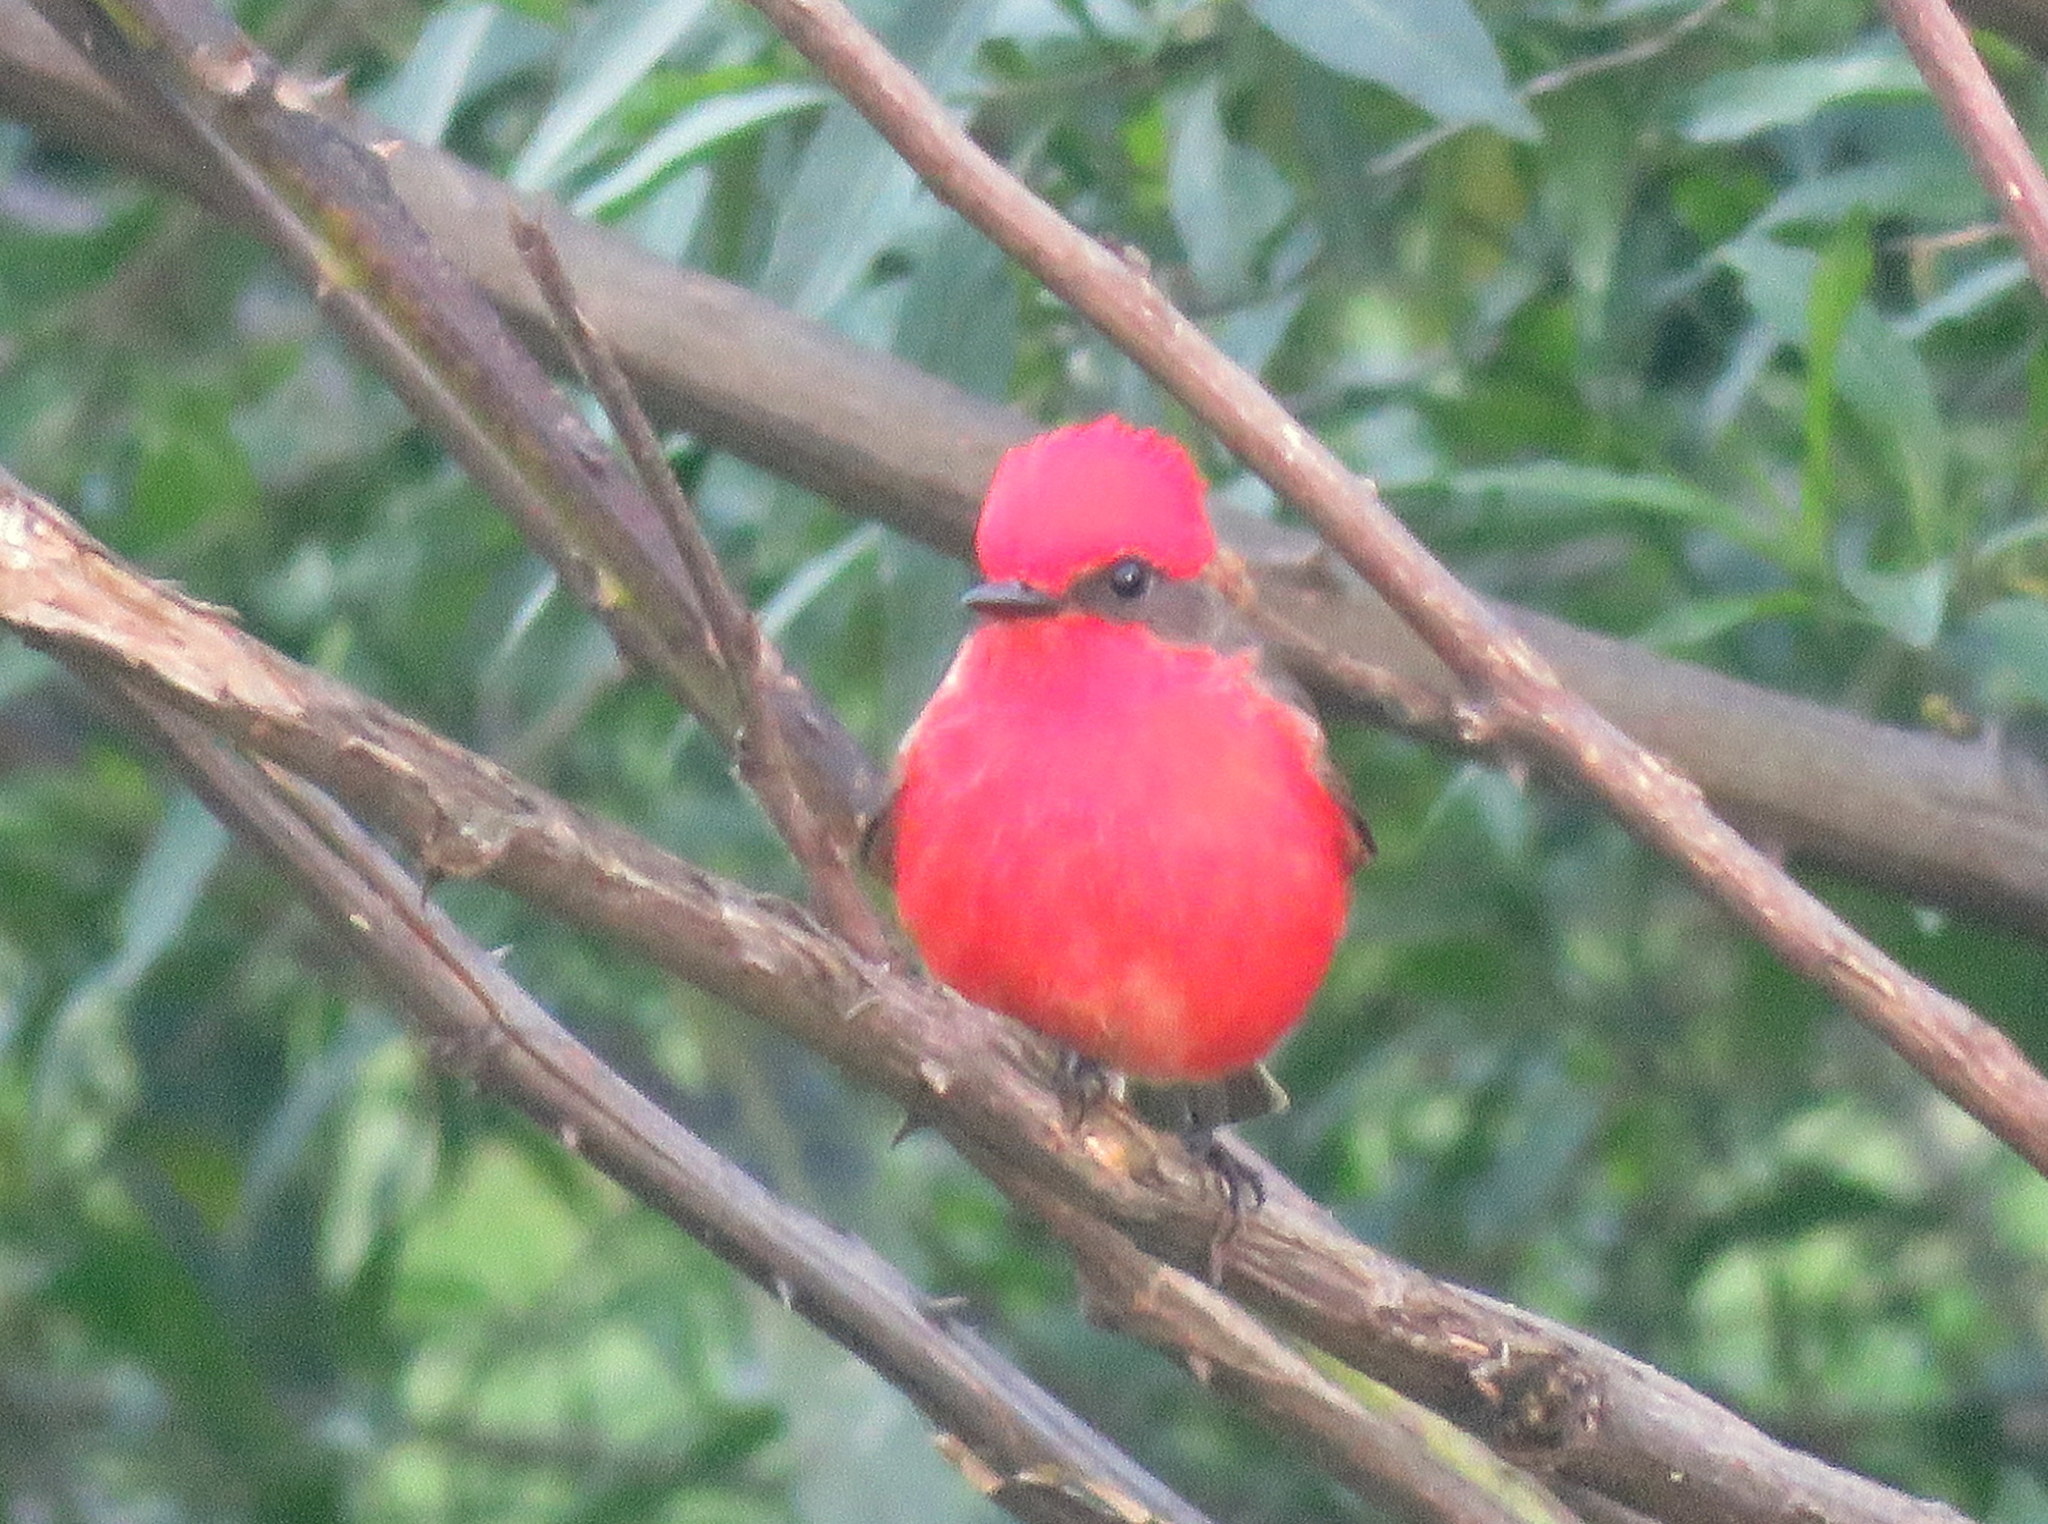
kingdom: Animalia
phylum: Chordata
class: Aves
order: Passeriformes
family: Tyrannidae
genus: Pyrocephalus
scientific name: Pyrocephalus rubinus
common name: Vermilion flycatcher
